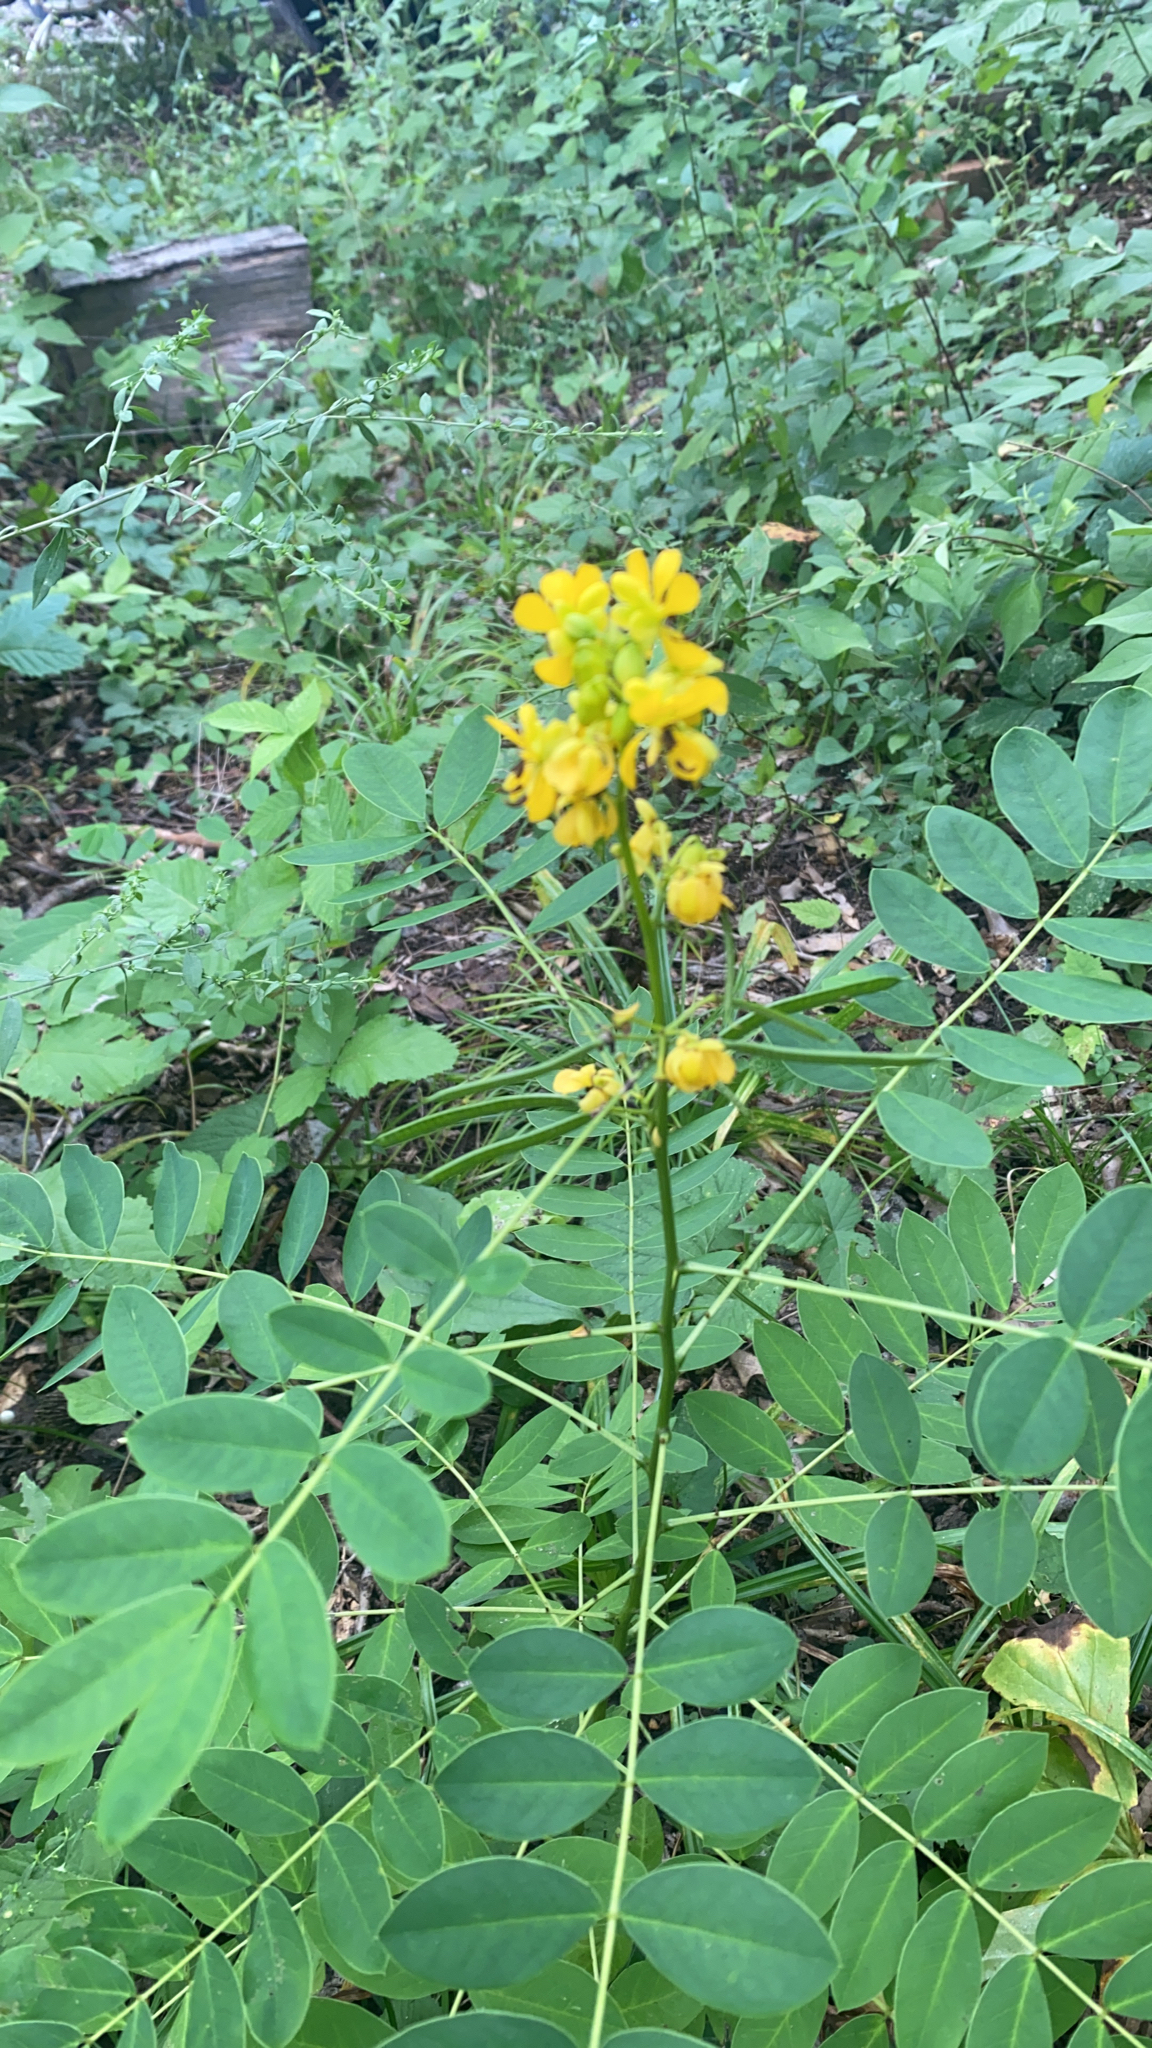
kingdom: Plantae
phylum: Tracheophyta
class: Magnoliopsida
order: Fabales
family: Fabaceae
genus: Senna
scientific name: Senna marilandica
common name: American senna
